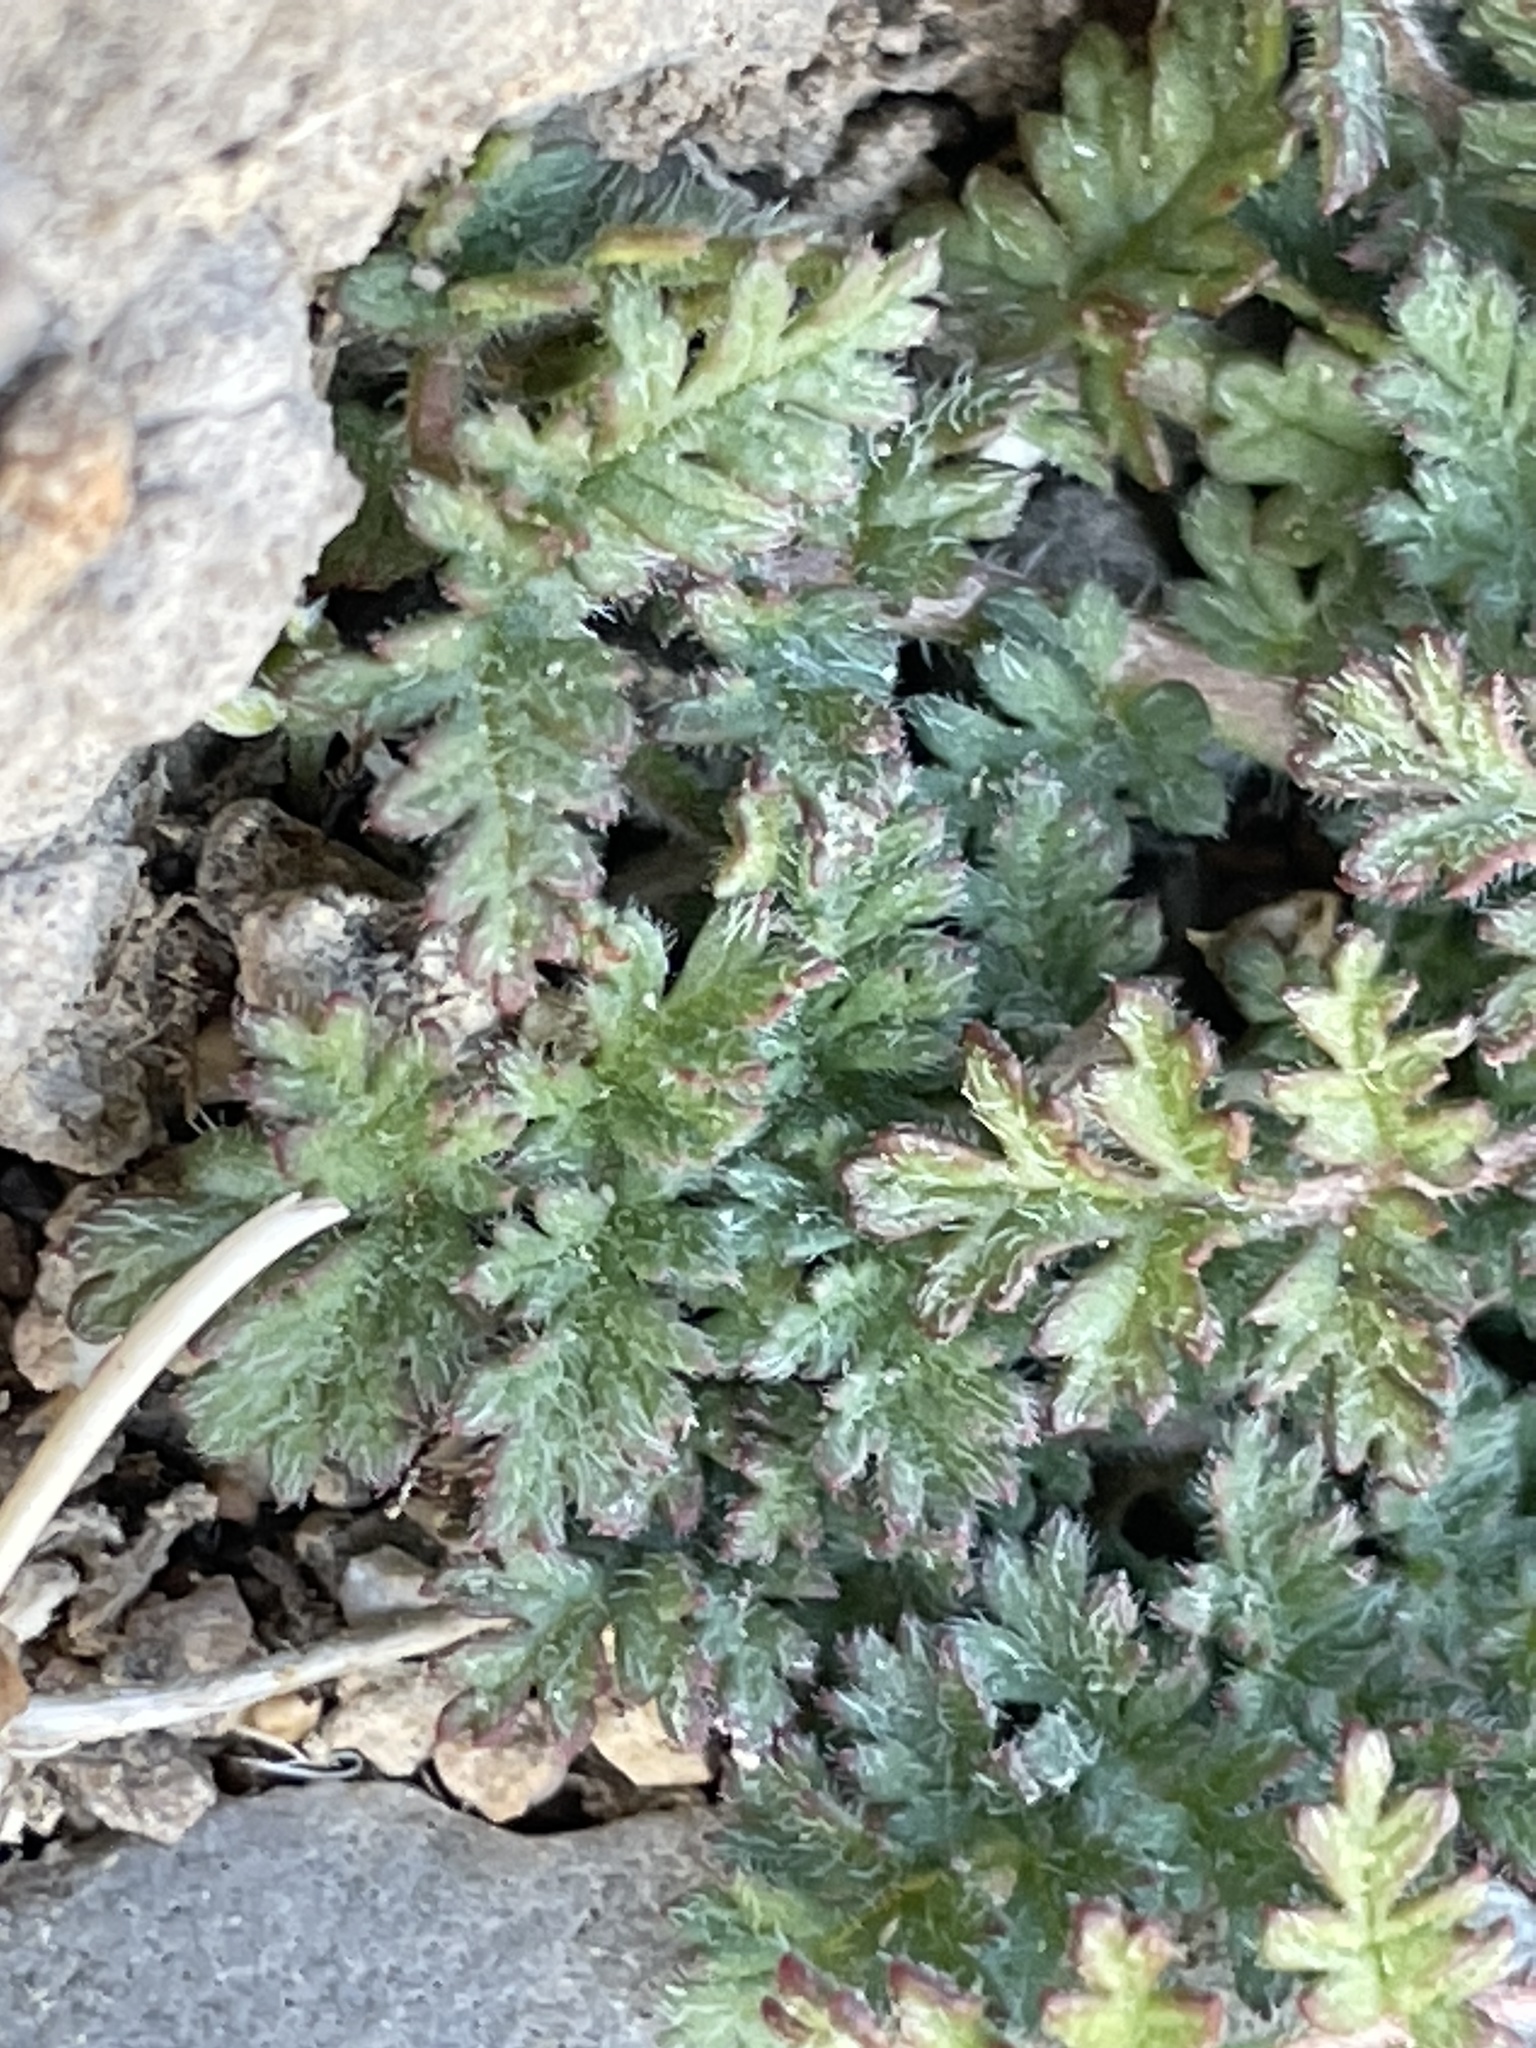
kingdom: Plantae
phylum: Tracheophyta
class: Magnoliopsida
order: Geraniales
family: Geraniaceae
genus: Erodium
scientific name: Erodium cicutarium
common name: Common stork's-bill
